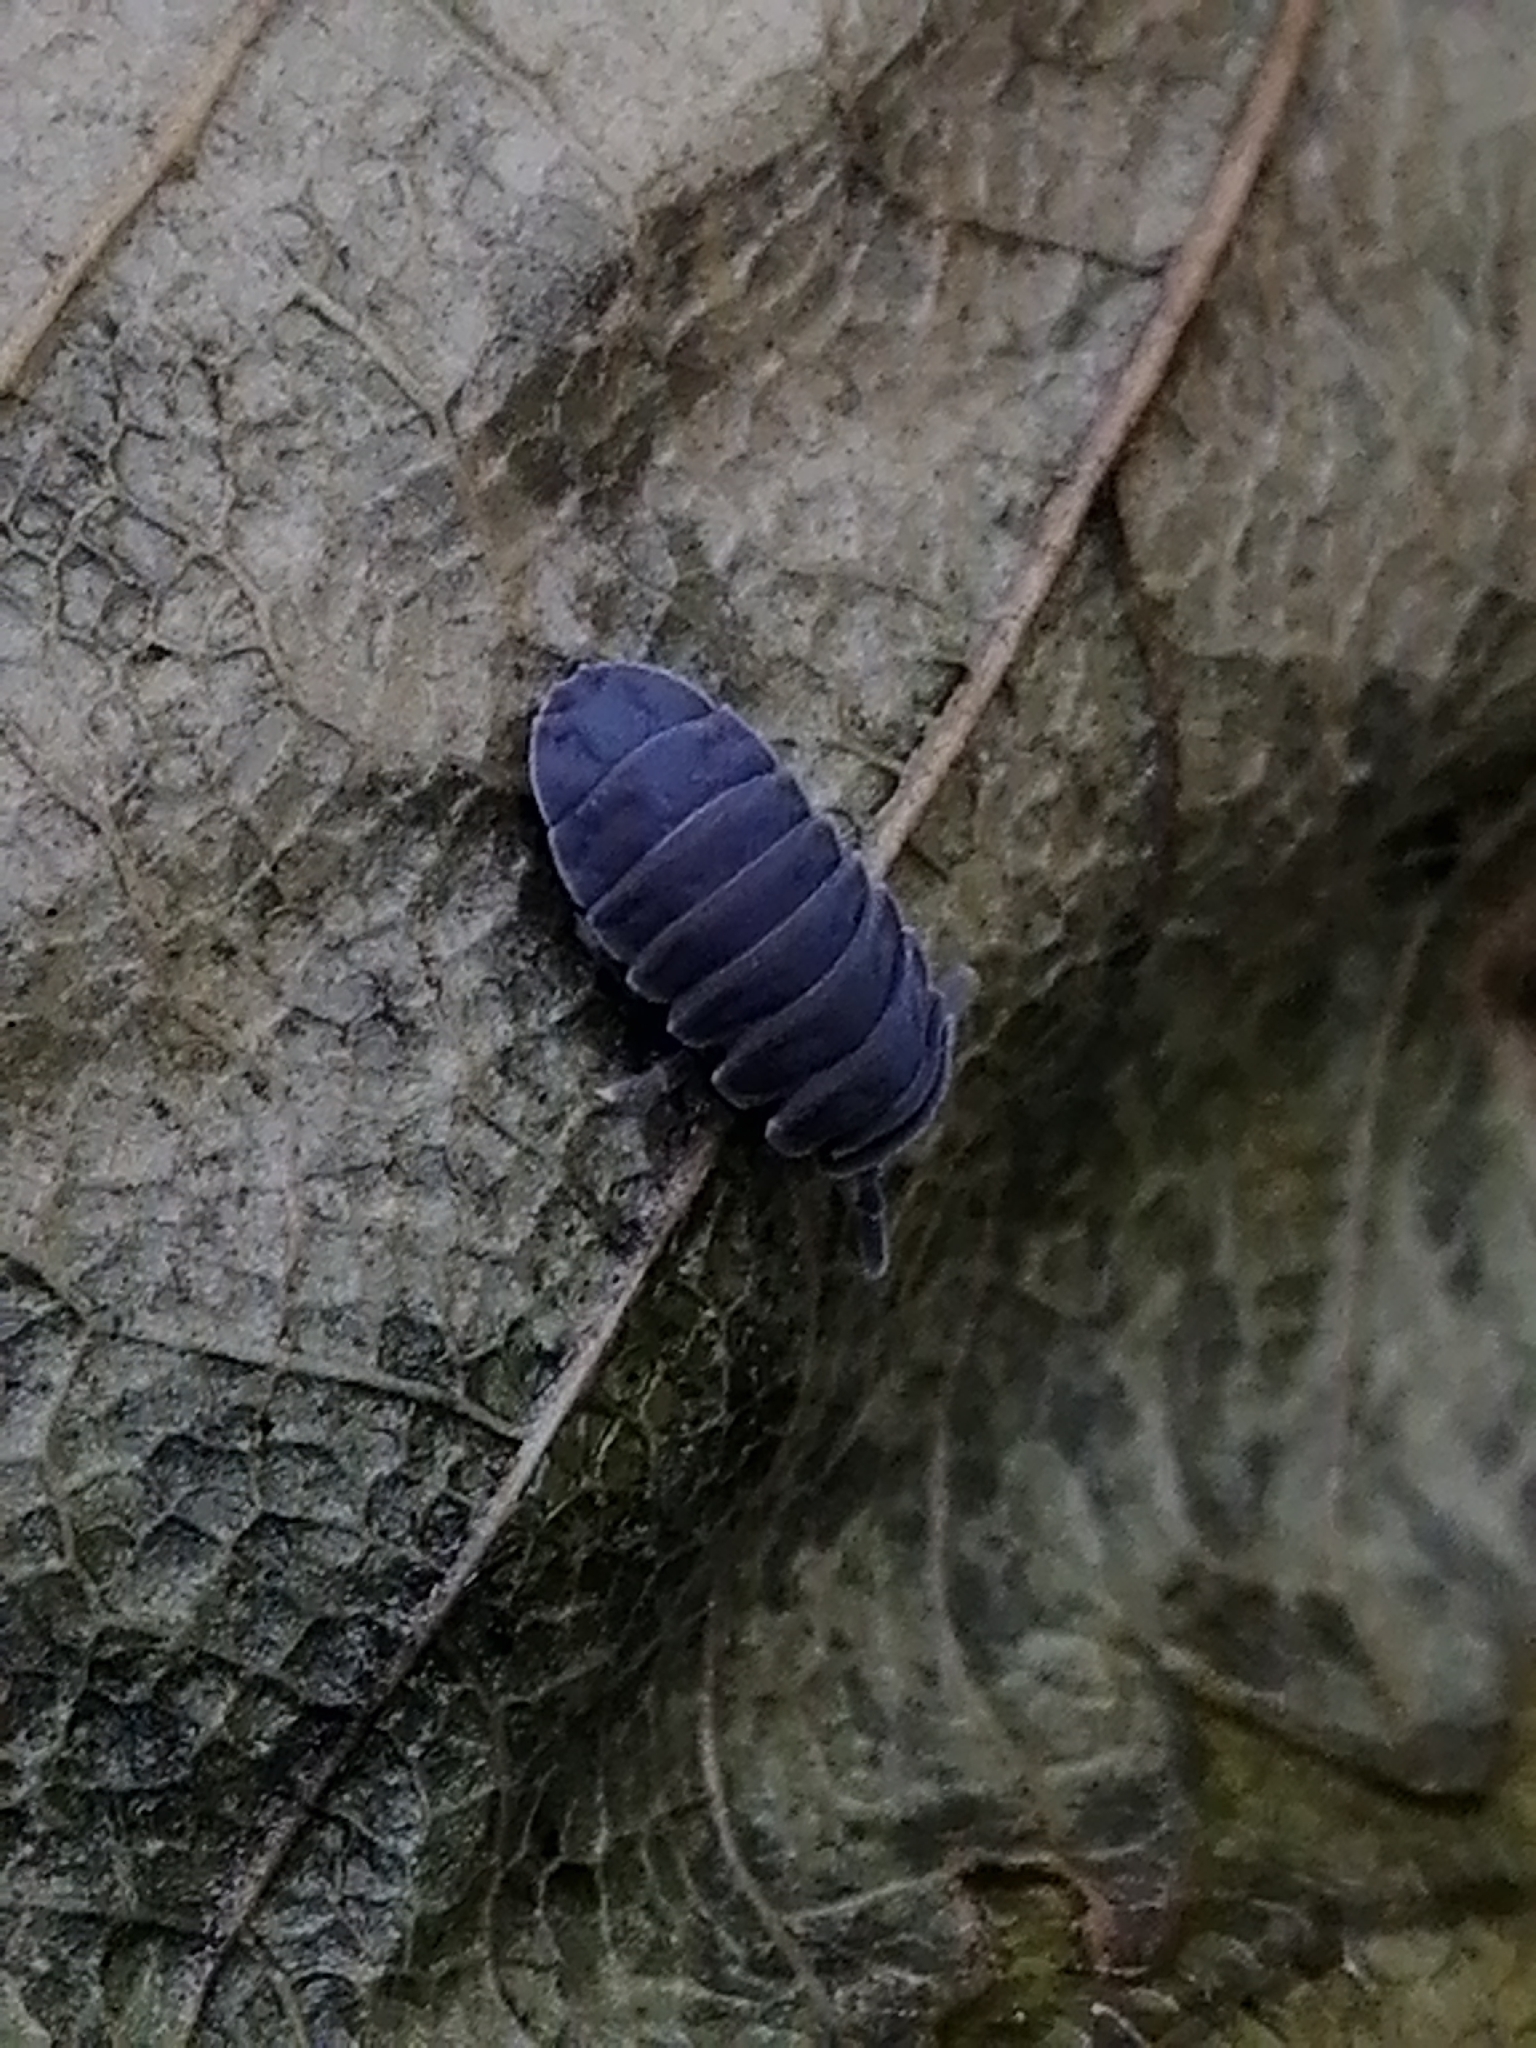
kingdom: Animalia
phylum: Arthropoda
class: Collembola
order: Poduromorpha
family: Onychiuridae
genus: Tetrodontophora
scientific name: Tetrodontophora bielanensis
